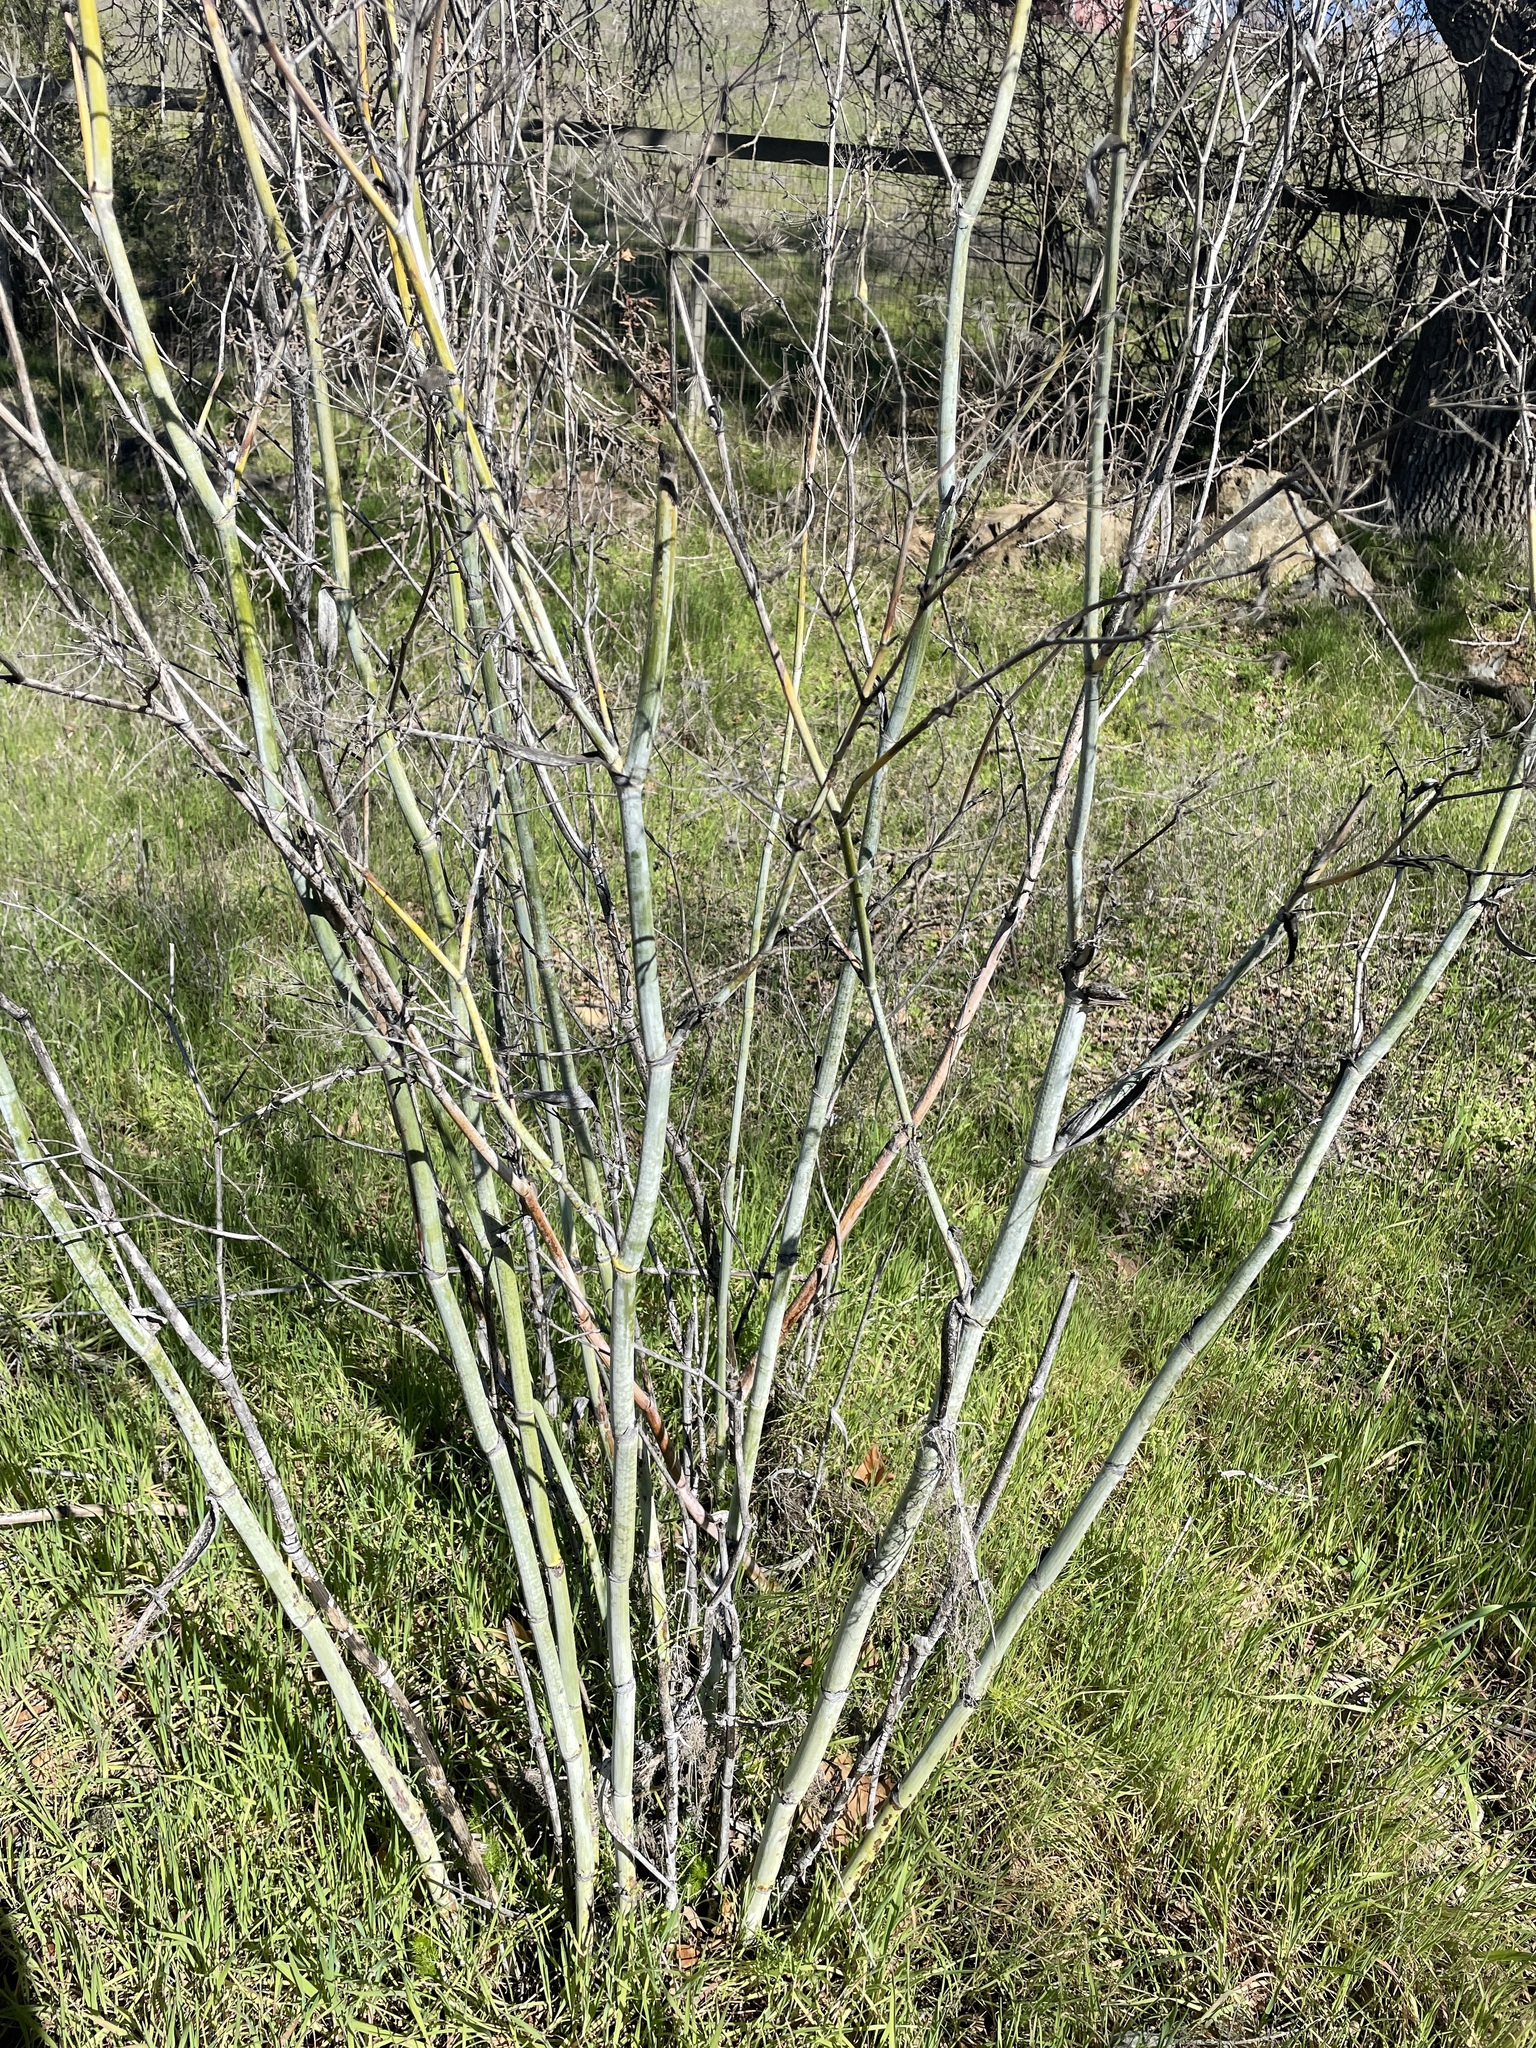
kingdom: Plantae
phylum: Tracheophyta
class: Magnoliopsida
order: Apiales
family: Apiaceae
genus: Foeniculum
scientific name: Foeniculum vulgare
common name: Fennel
